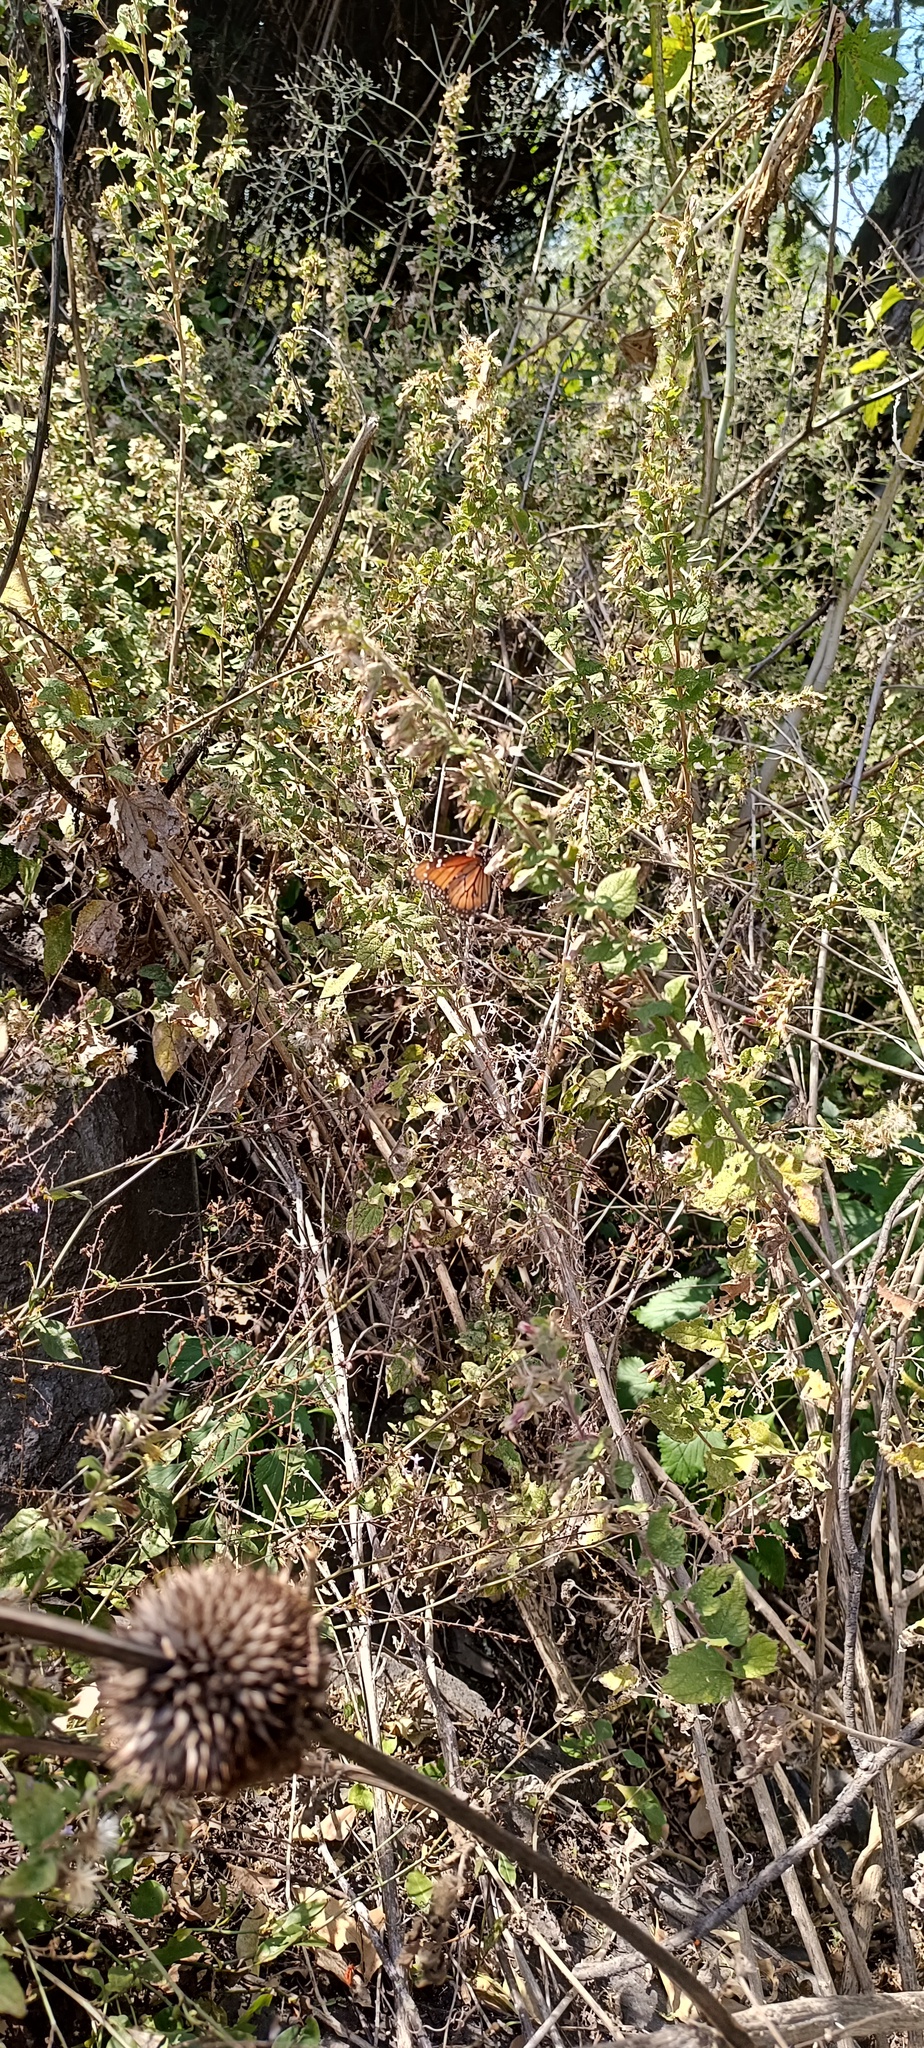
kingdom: Animalia
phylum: Arthropoda
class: Insecta
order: Lepidoptera
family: Nymphalidae
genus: Danaus
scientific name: Danaus eresimus
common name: Soldier
